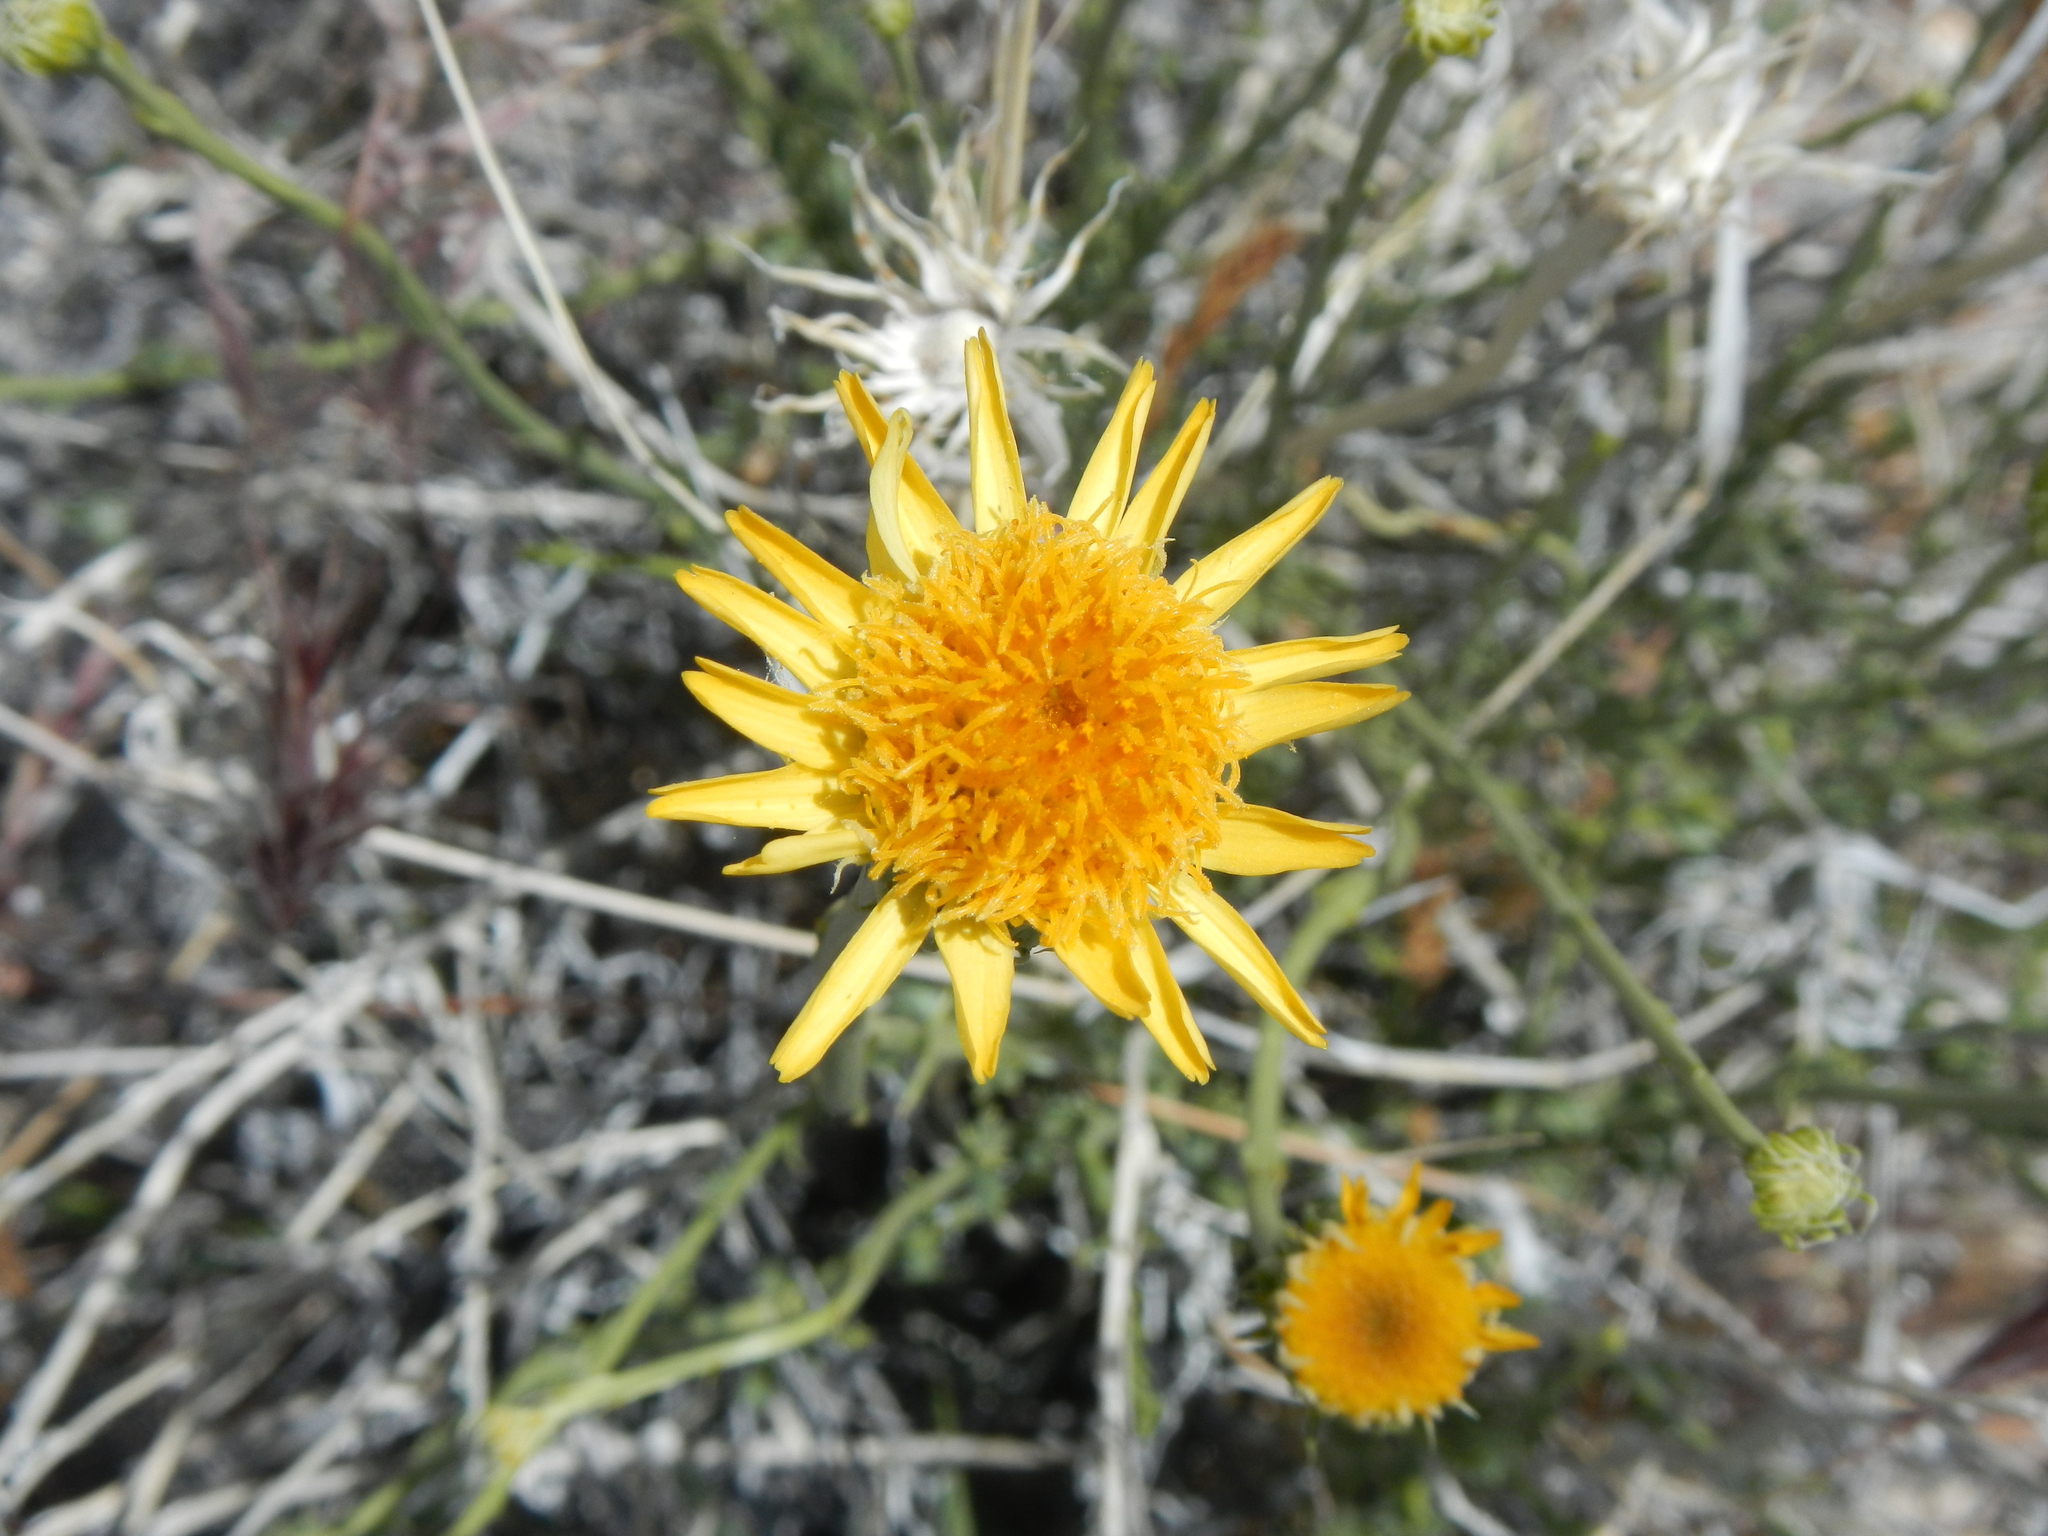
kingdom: Plantae
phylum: Tracheophyta
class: Magnoliopsida
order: Asterales
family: Asteraceae
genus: Adenophyllum
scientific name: Adenophyllum cooperi
